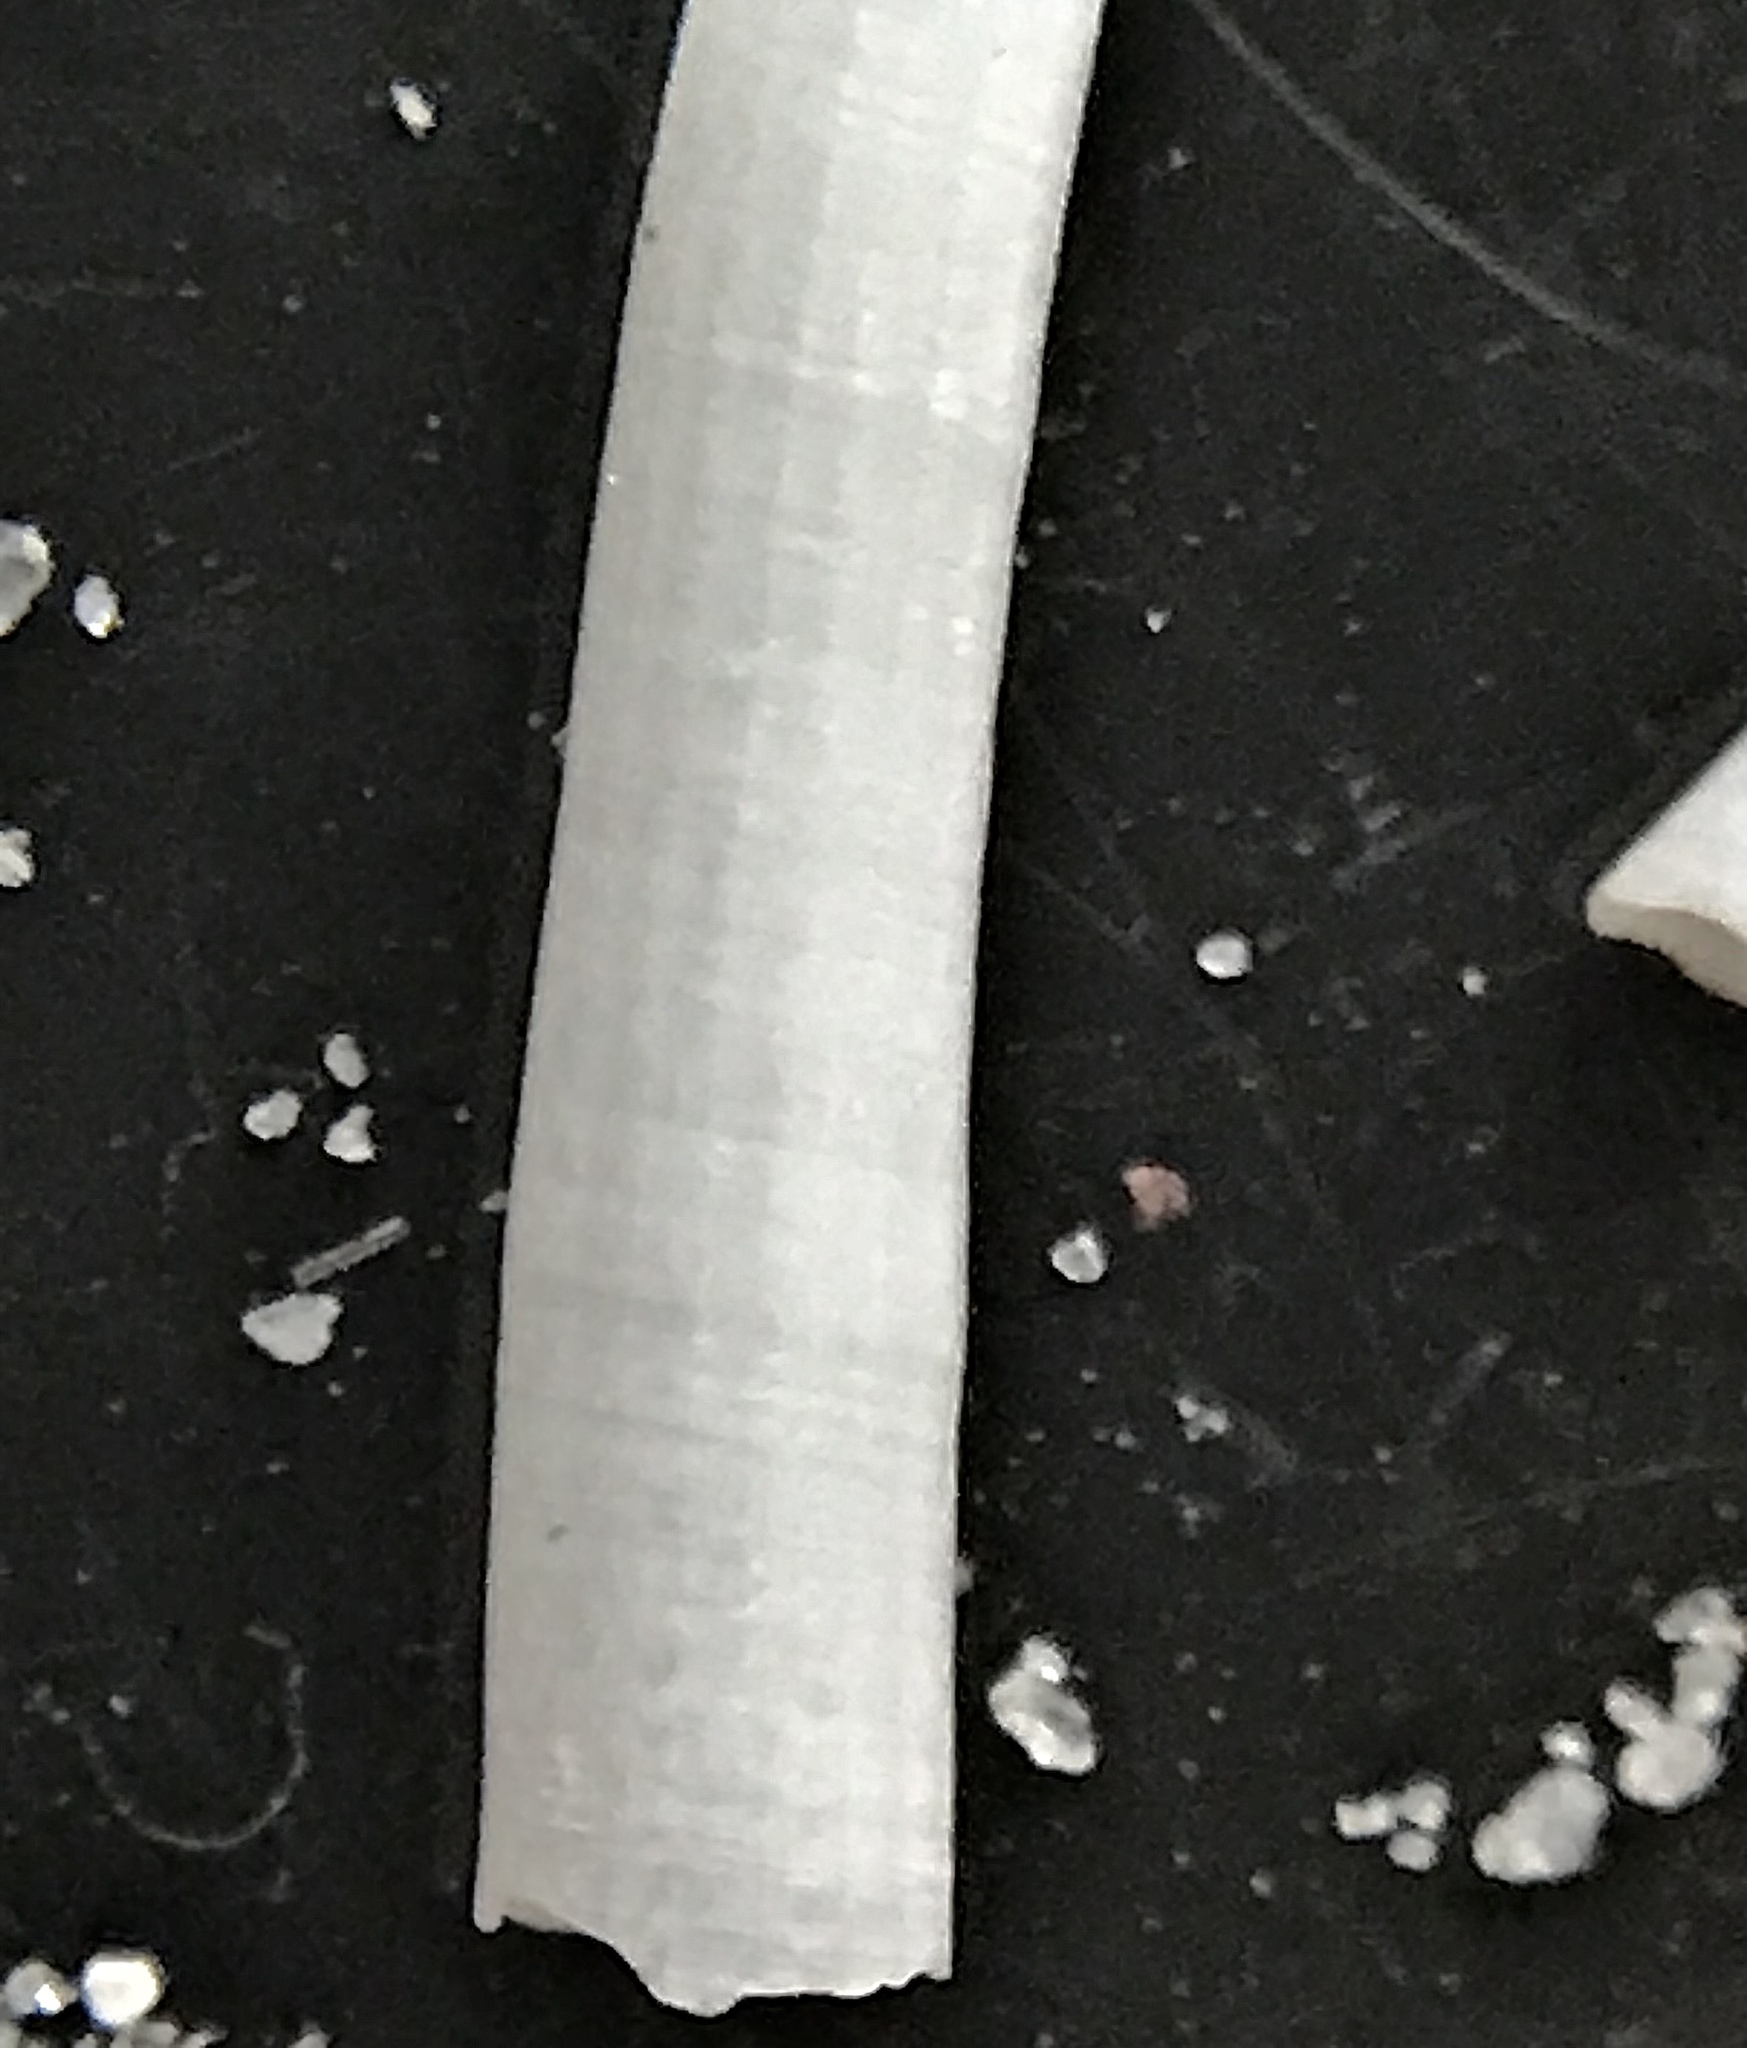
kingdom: Animalia
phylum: Mollusca
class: Scaphopoda
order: Dentaliida
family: Dentaliidae
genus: Antalis
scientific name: Antalis antillarum
